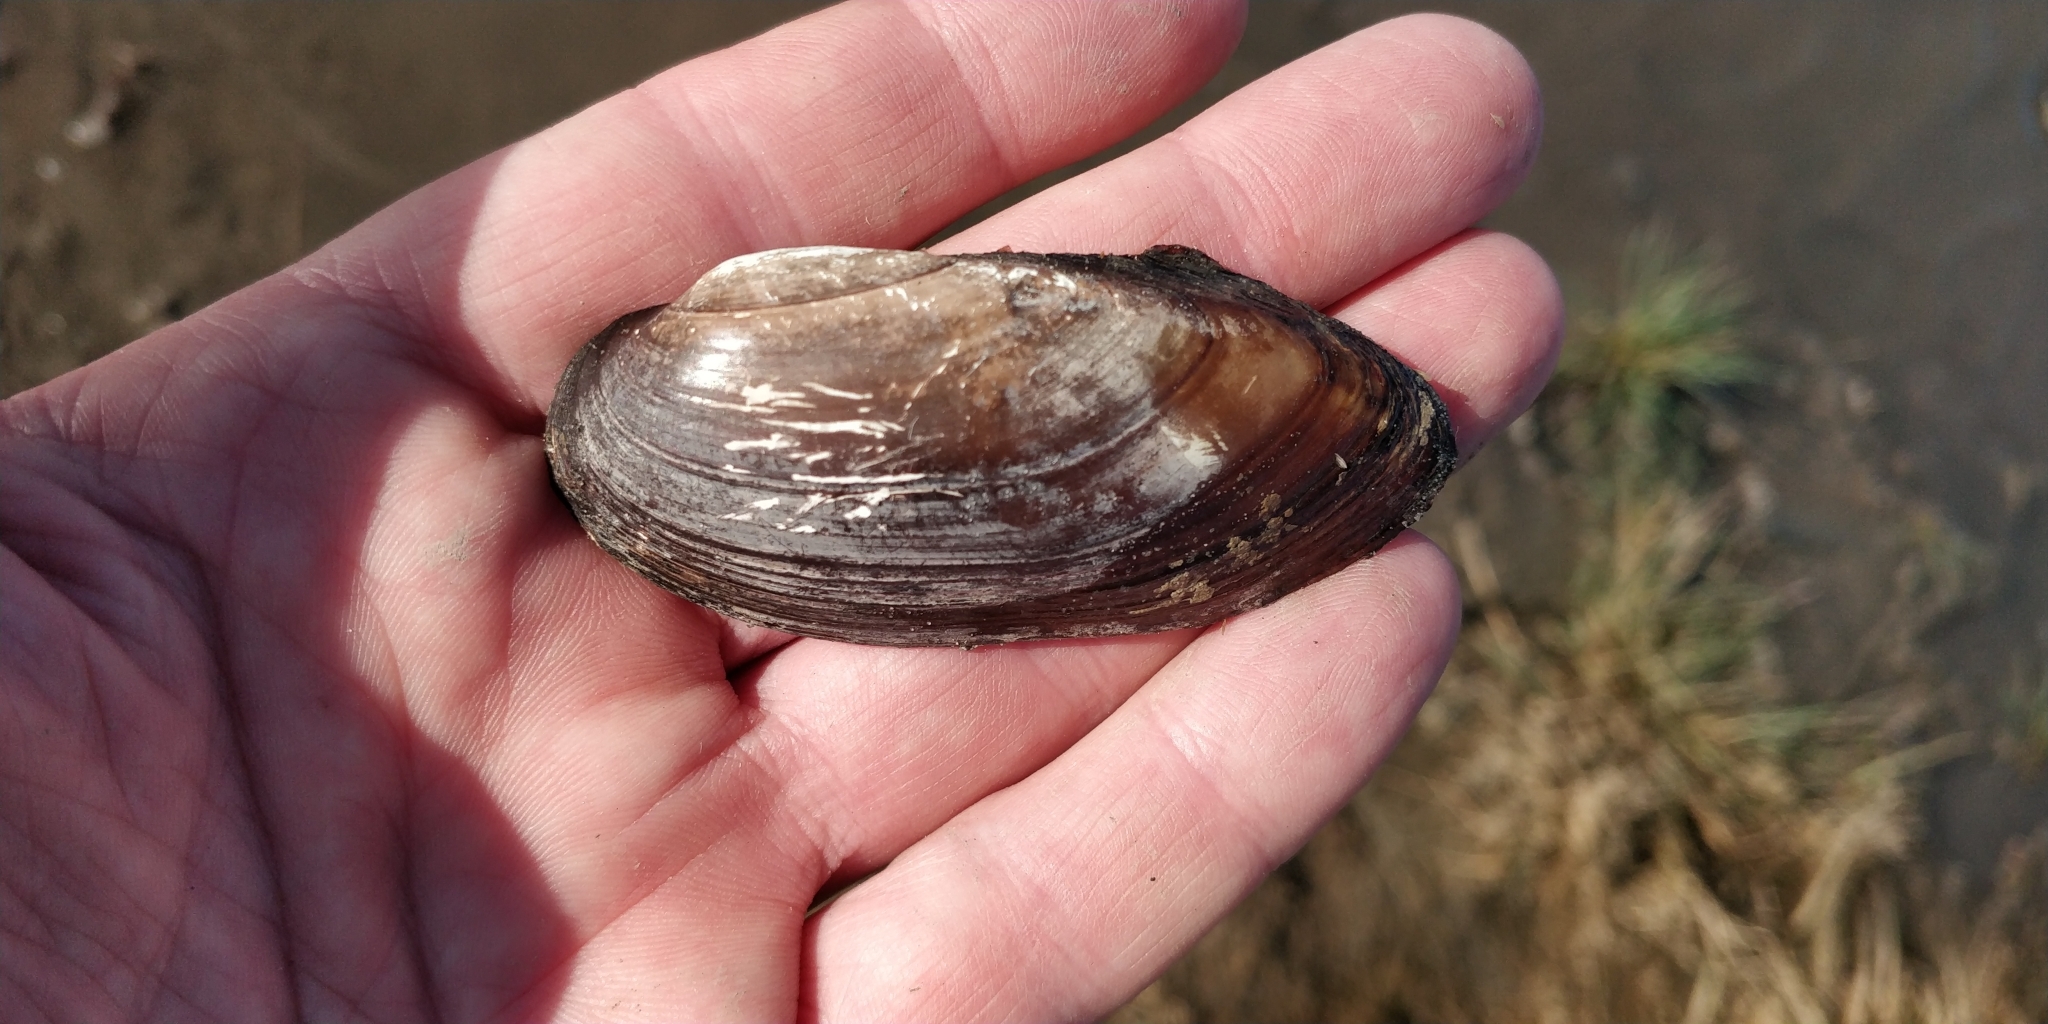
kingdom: Animalia
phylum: Mollusca
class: Bivalvia
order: Unionida
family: Unionidae
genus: Lampsilis
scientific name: Lampsilis teres
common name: Yellow sandshell
